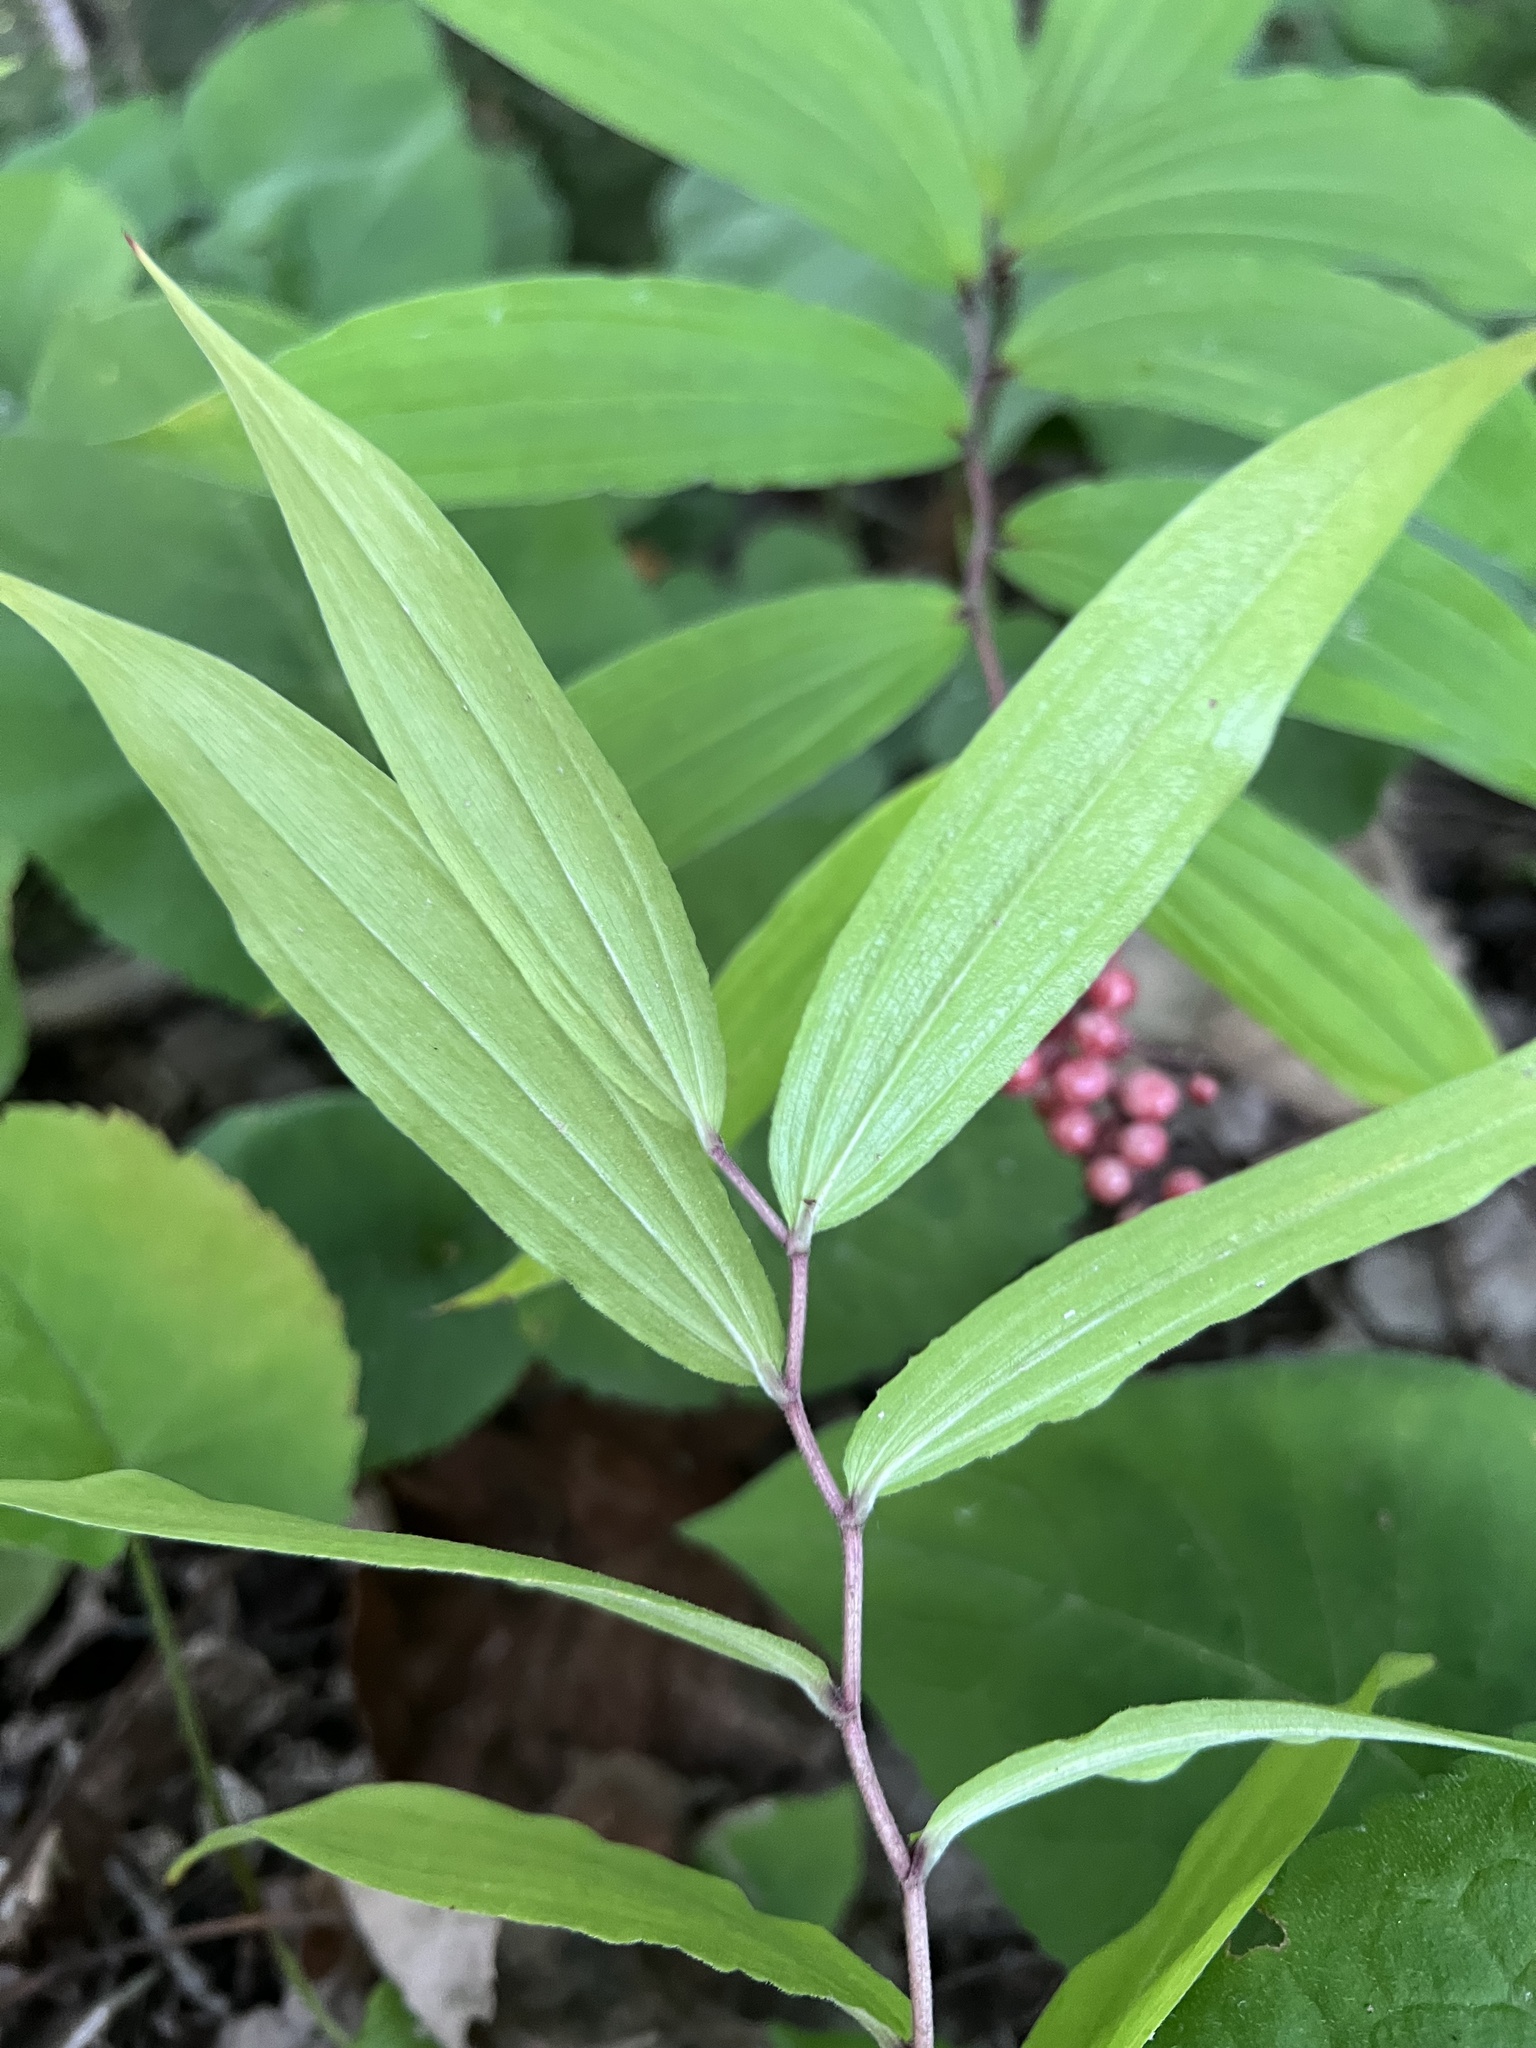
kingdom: Plantae
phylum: Tracheophyta
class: Liliopsida
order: Asparagales
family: Asparagaceae
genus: Maianthemum
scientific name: Maianthemum racemosum
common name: False spikenard
